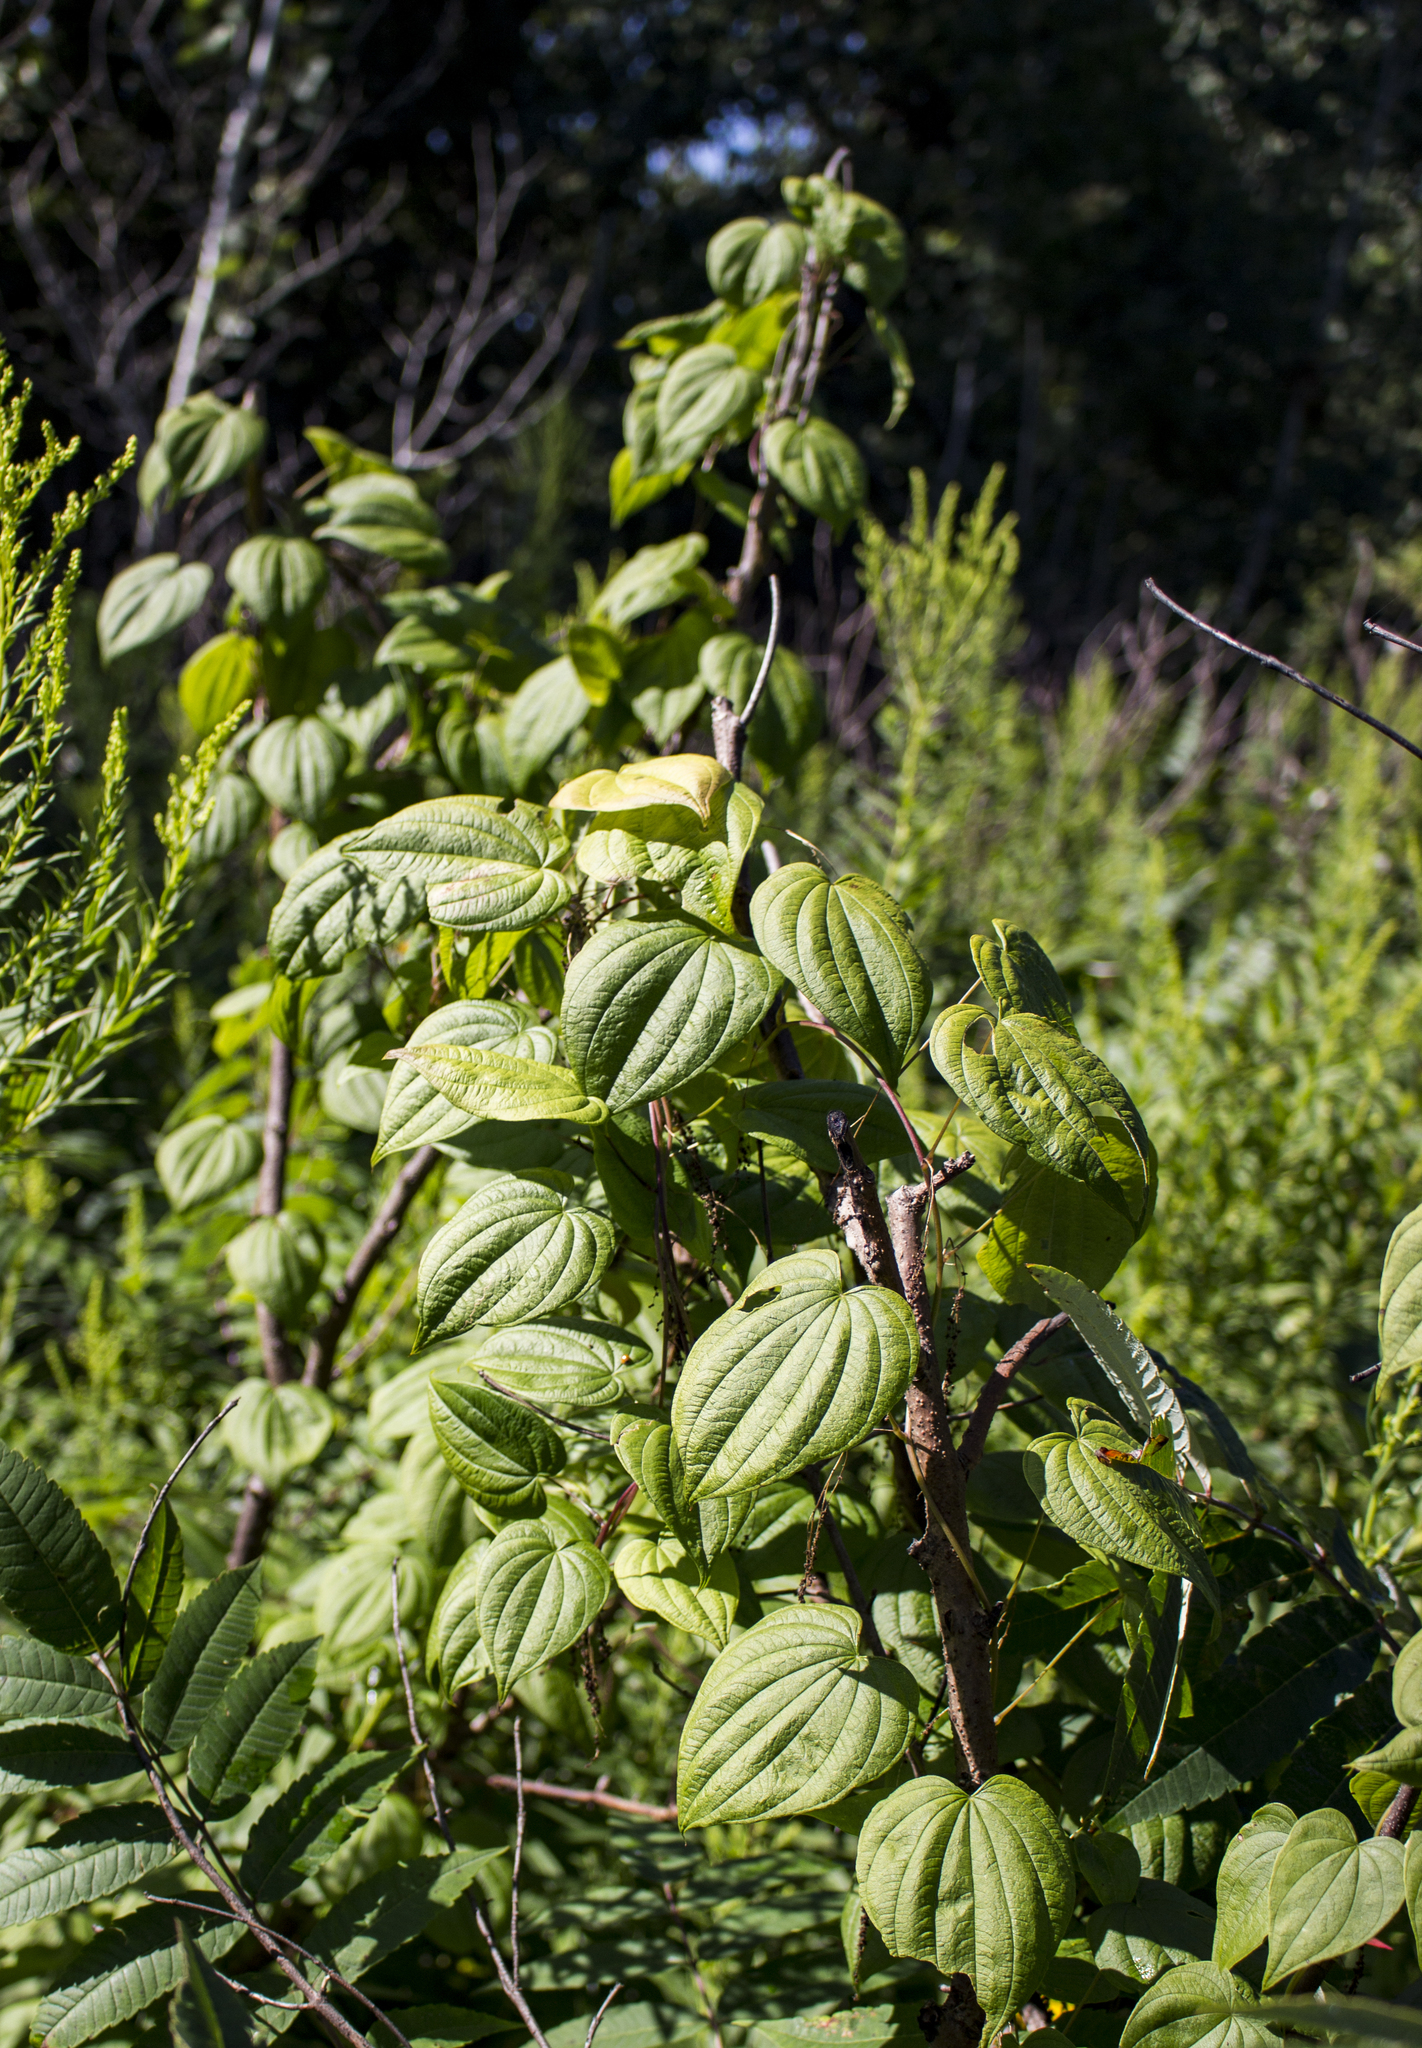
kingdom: Plantae
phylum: Tracheophyta
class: Liliopsida
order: Dioscoreales
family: Dioscoreaceae
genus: Dioscorea
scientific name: Dioscorea villosa
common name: Wild yam
